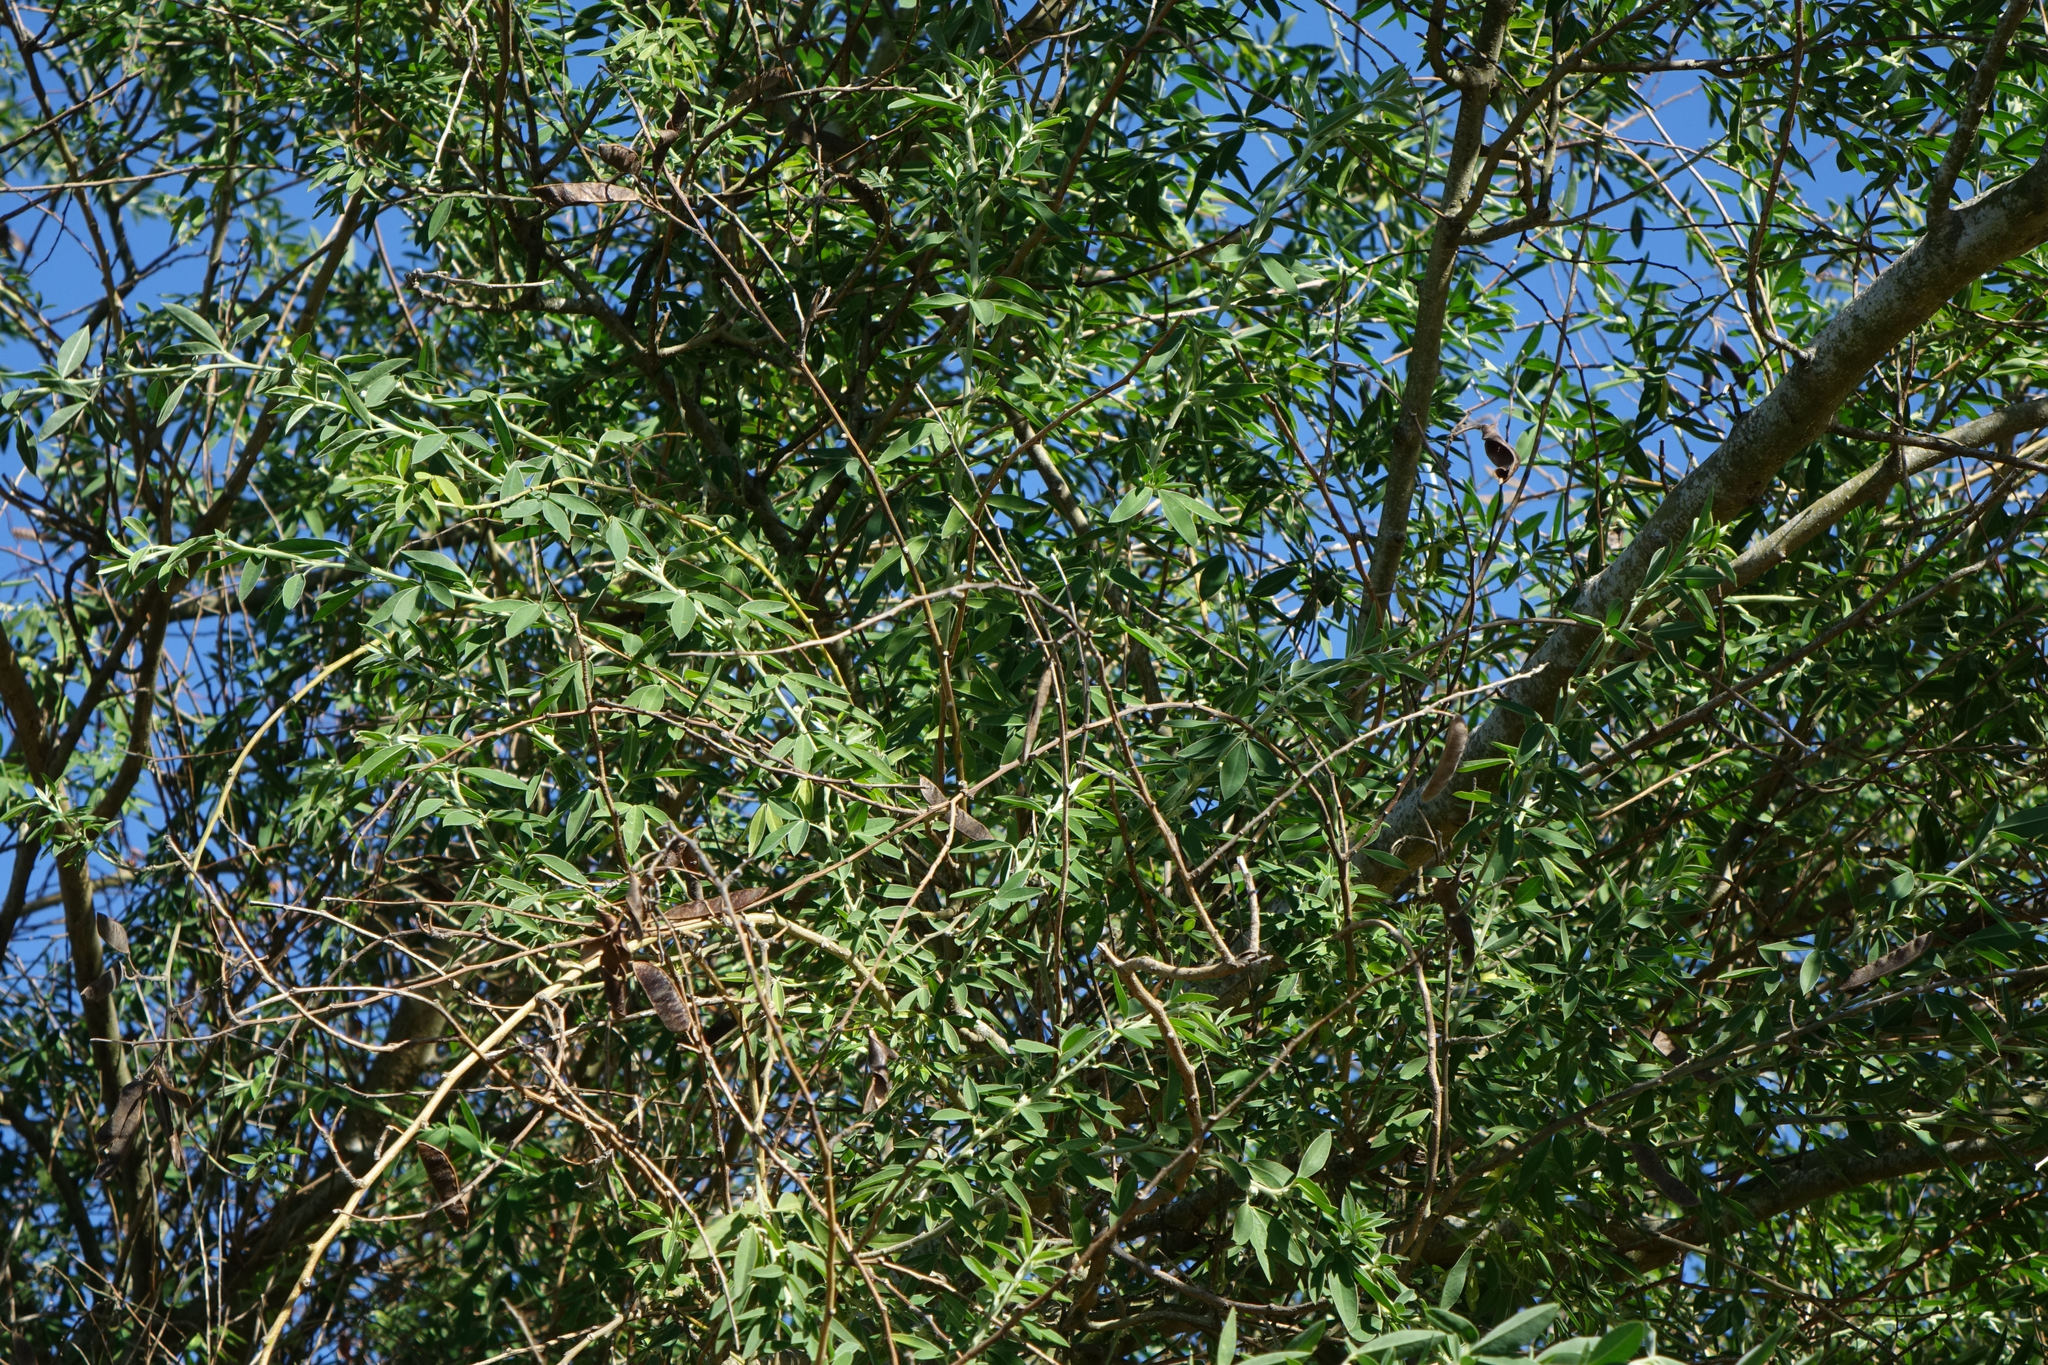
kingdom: Plantae
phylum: Tracheophyta
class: Magnoliopsida
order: Santalales
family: Loranthaceae
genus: Tupeia
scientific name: Tupeia antarctica
